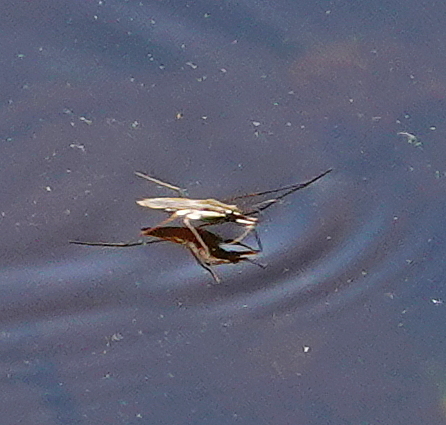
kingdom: Animalia
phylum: Arthropoda
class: Insecta
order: Hemiptera
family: Gerridae
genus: Gerris
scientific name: Gerris
